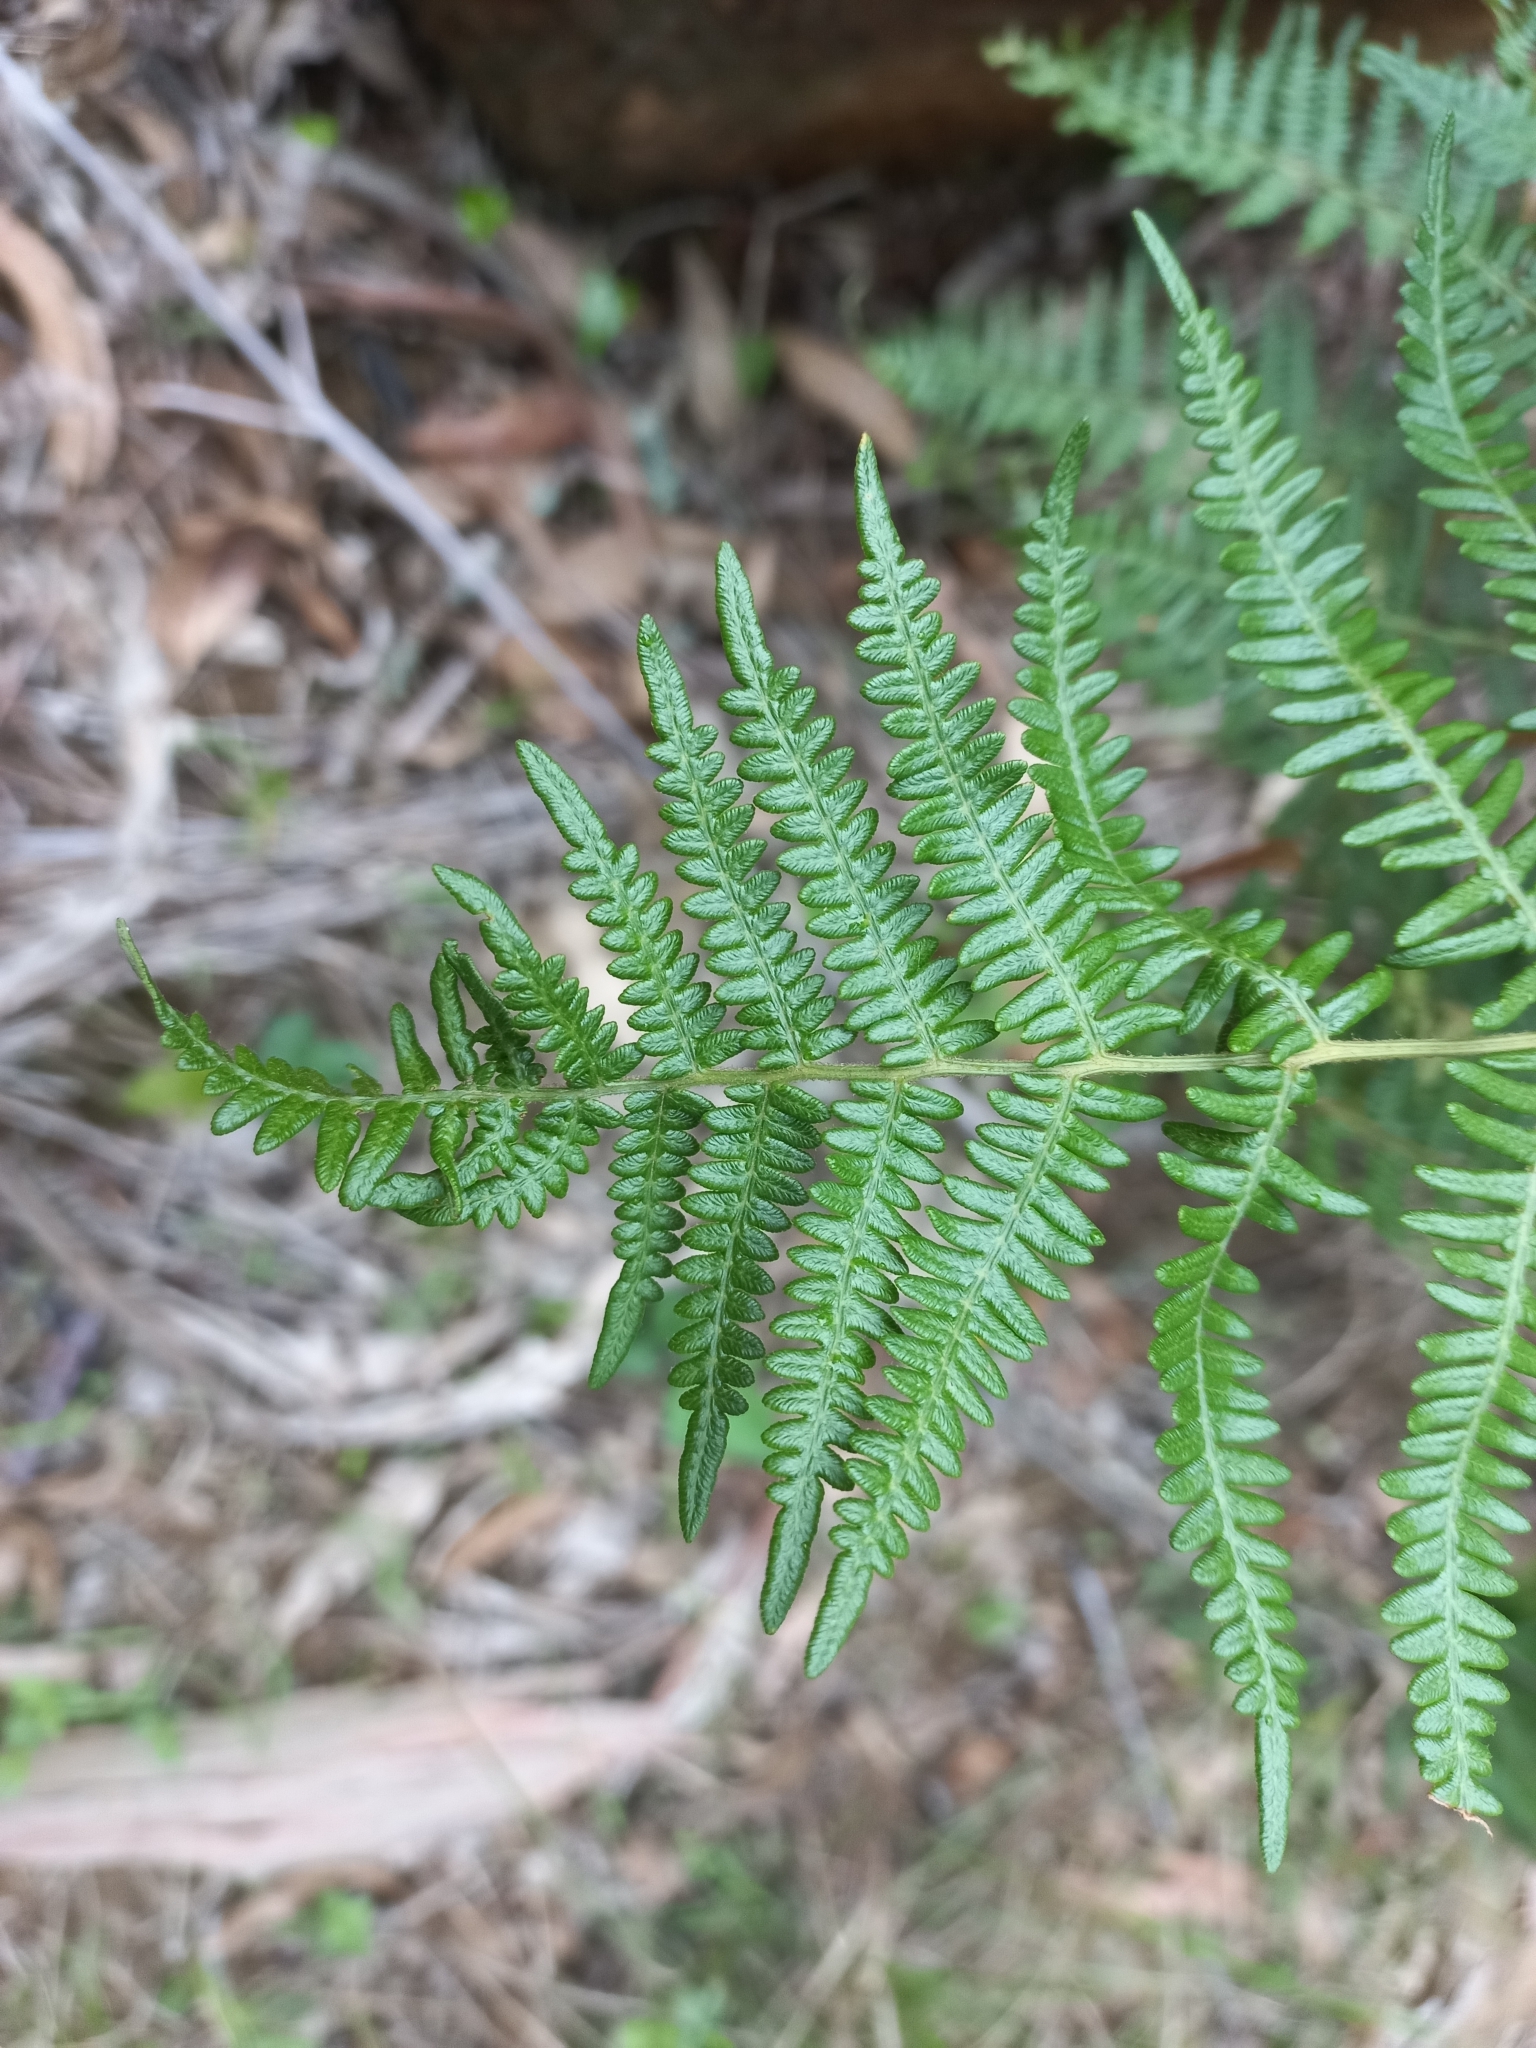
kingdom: Plantae
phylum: Tracheophyta
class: Polypodiopsida
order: Polypodiales
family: Dennstaedtiaceae
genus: Pteridium
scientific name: Pteridium aquilinum
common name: Bracken
